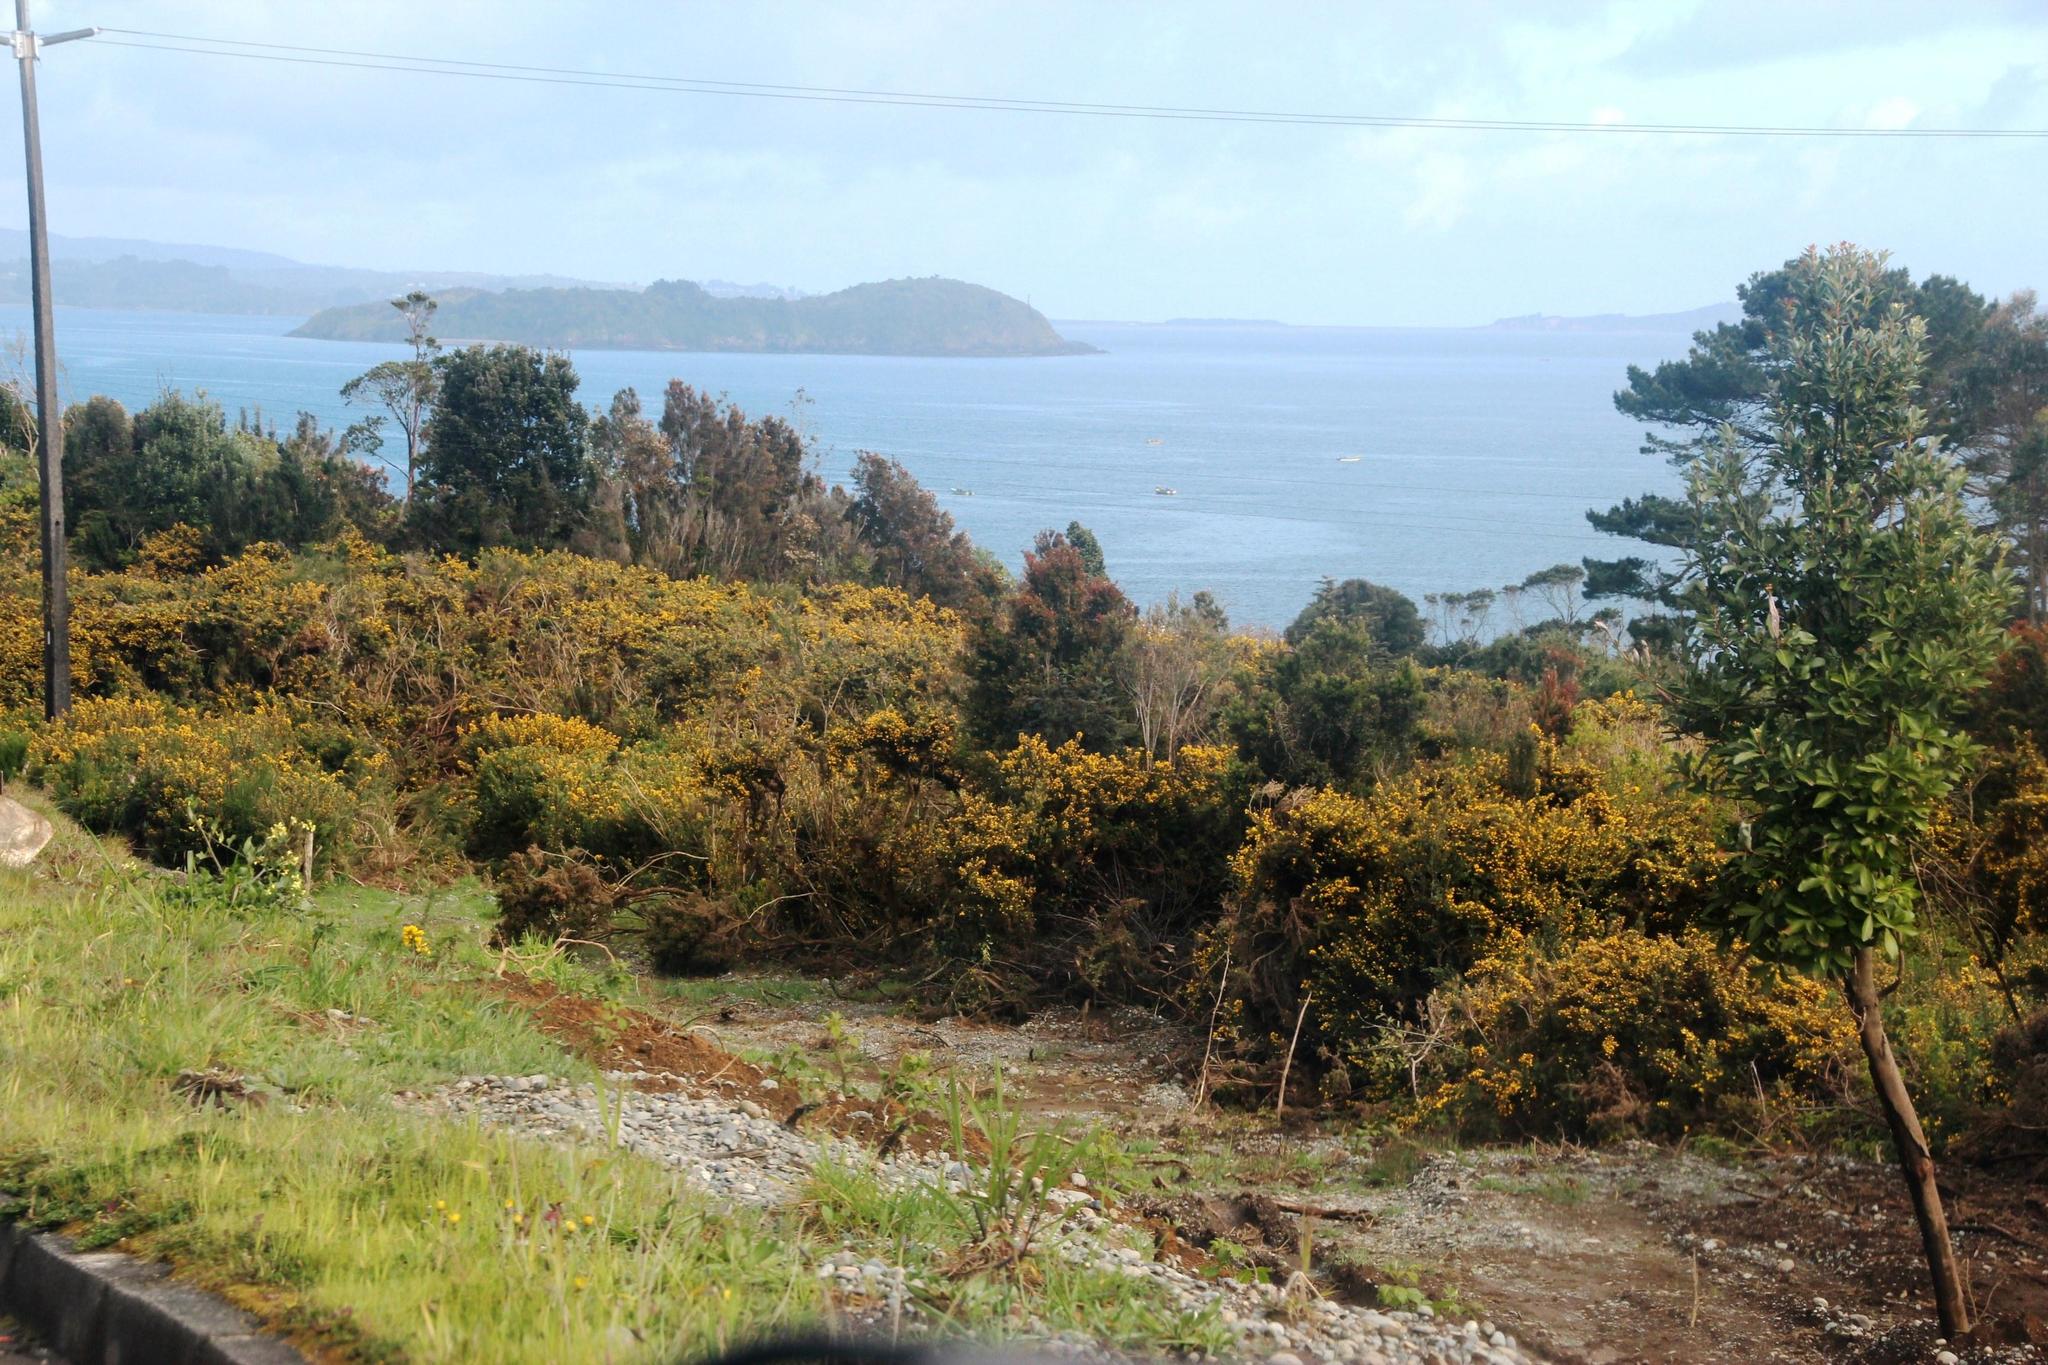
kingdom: Plantae
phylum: Tracheophyta
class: Magnoliopsida
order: Fabales
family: Fabaceae
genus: Ulex
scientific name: Ulex europaeus
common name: Common gorse
